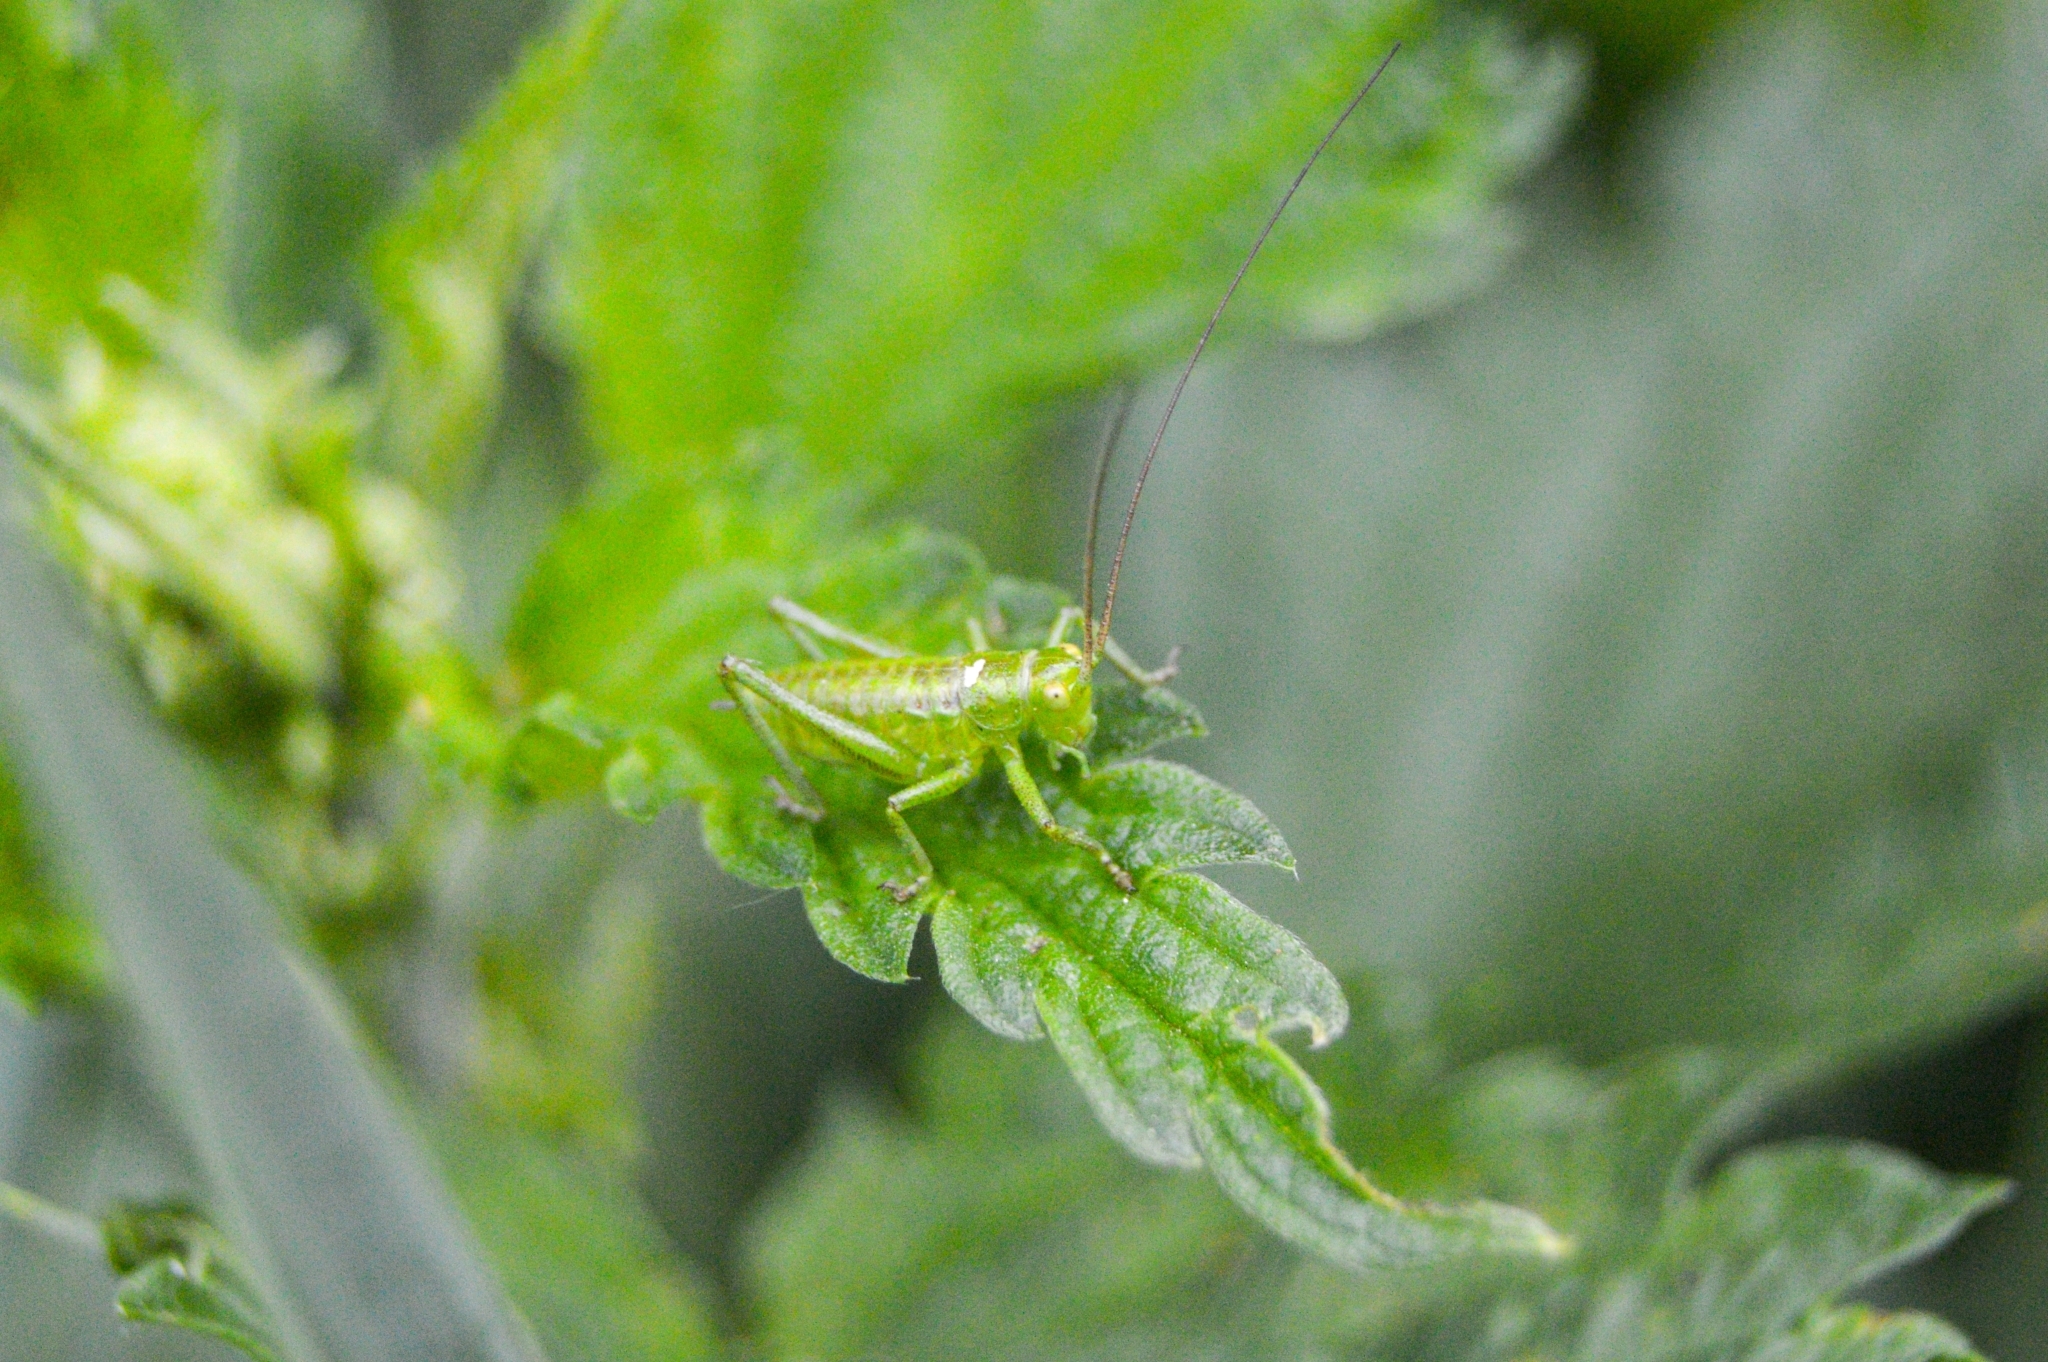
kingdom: Animalia
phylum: Arthropoda
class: Insecta
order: Orthoptera
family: Tettigoniidae
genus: Tettigonia
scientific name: Tettigonia cantans
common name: Upland green bush-cricket
